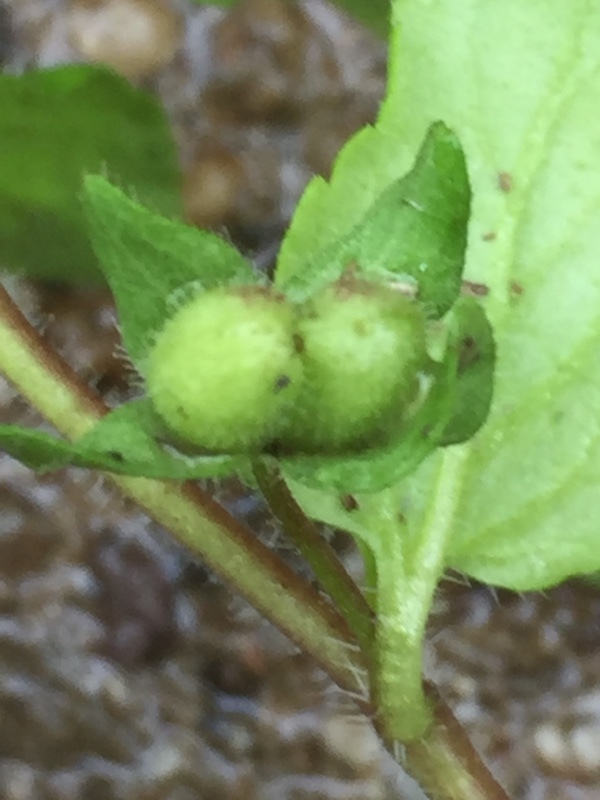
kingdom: Plantae
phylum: Tracheophyta
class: Magnoliopsida
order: Lamiales
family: Plantaginaceae
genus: Veronica
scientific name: Veronica agrestis
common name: Green field-speedwell
